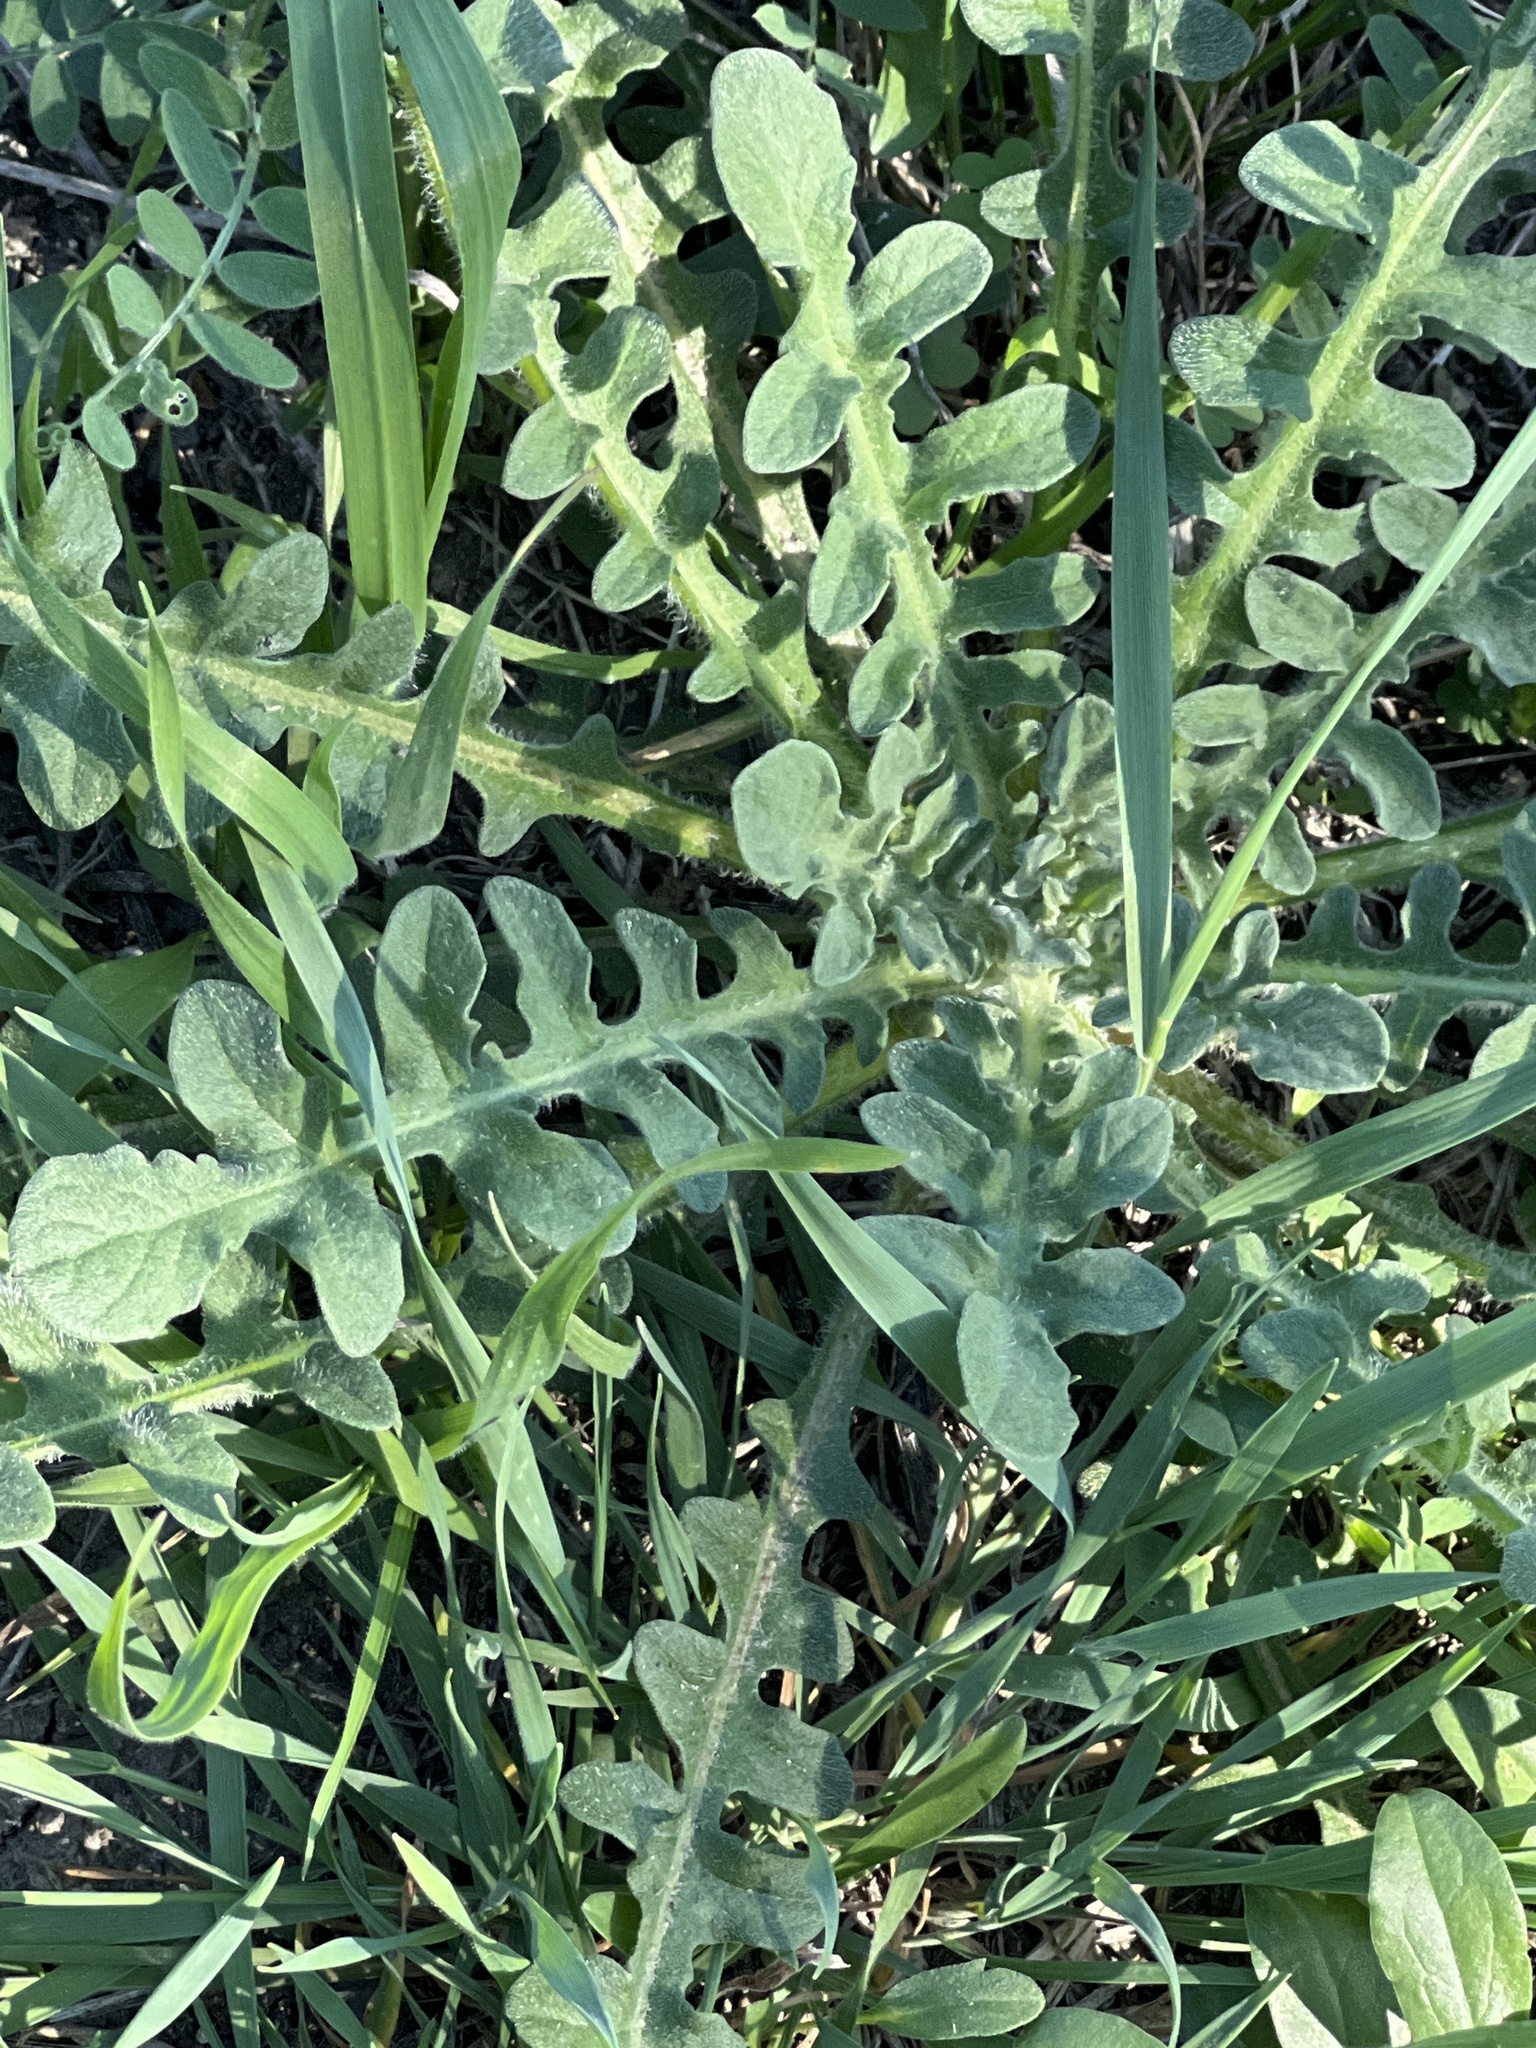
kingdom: Plantae
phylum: Tracheophyta
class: Magnoliopsida
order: Asterales
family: Asteraceae
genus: Centaurea
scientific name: Centaurea melitensis
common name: Maltese star-thistle
